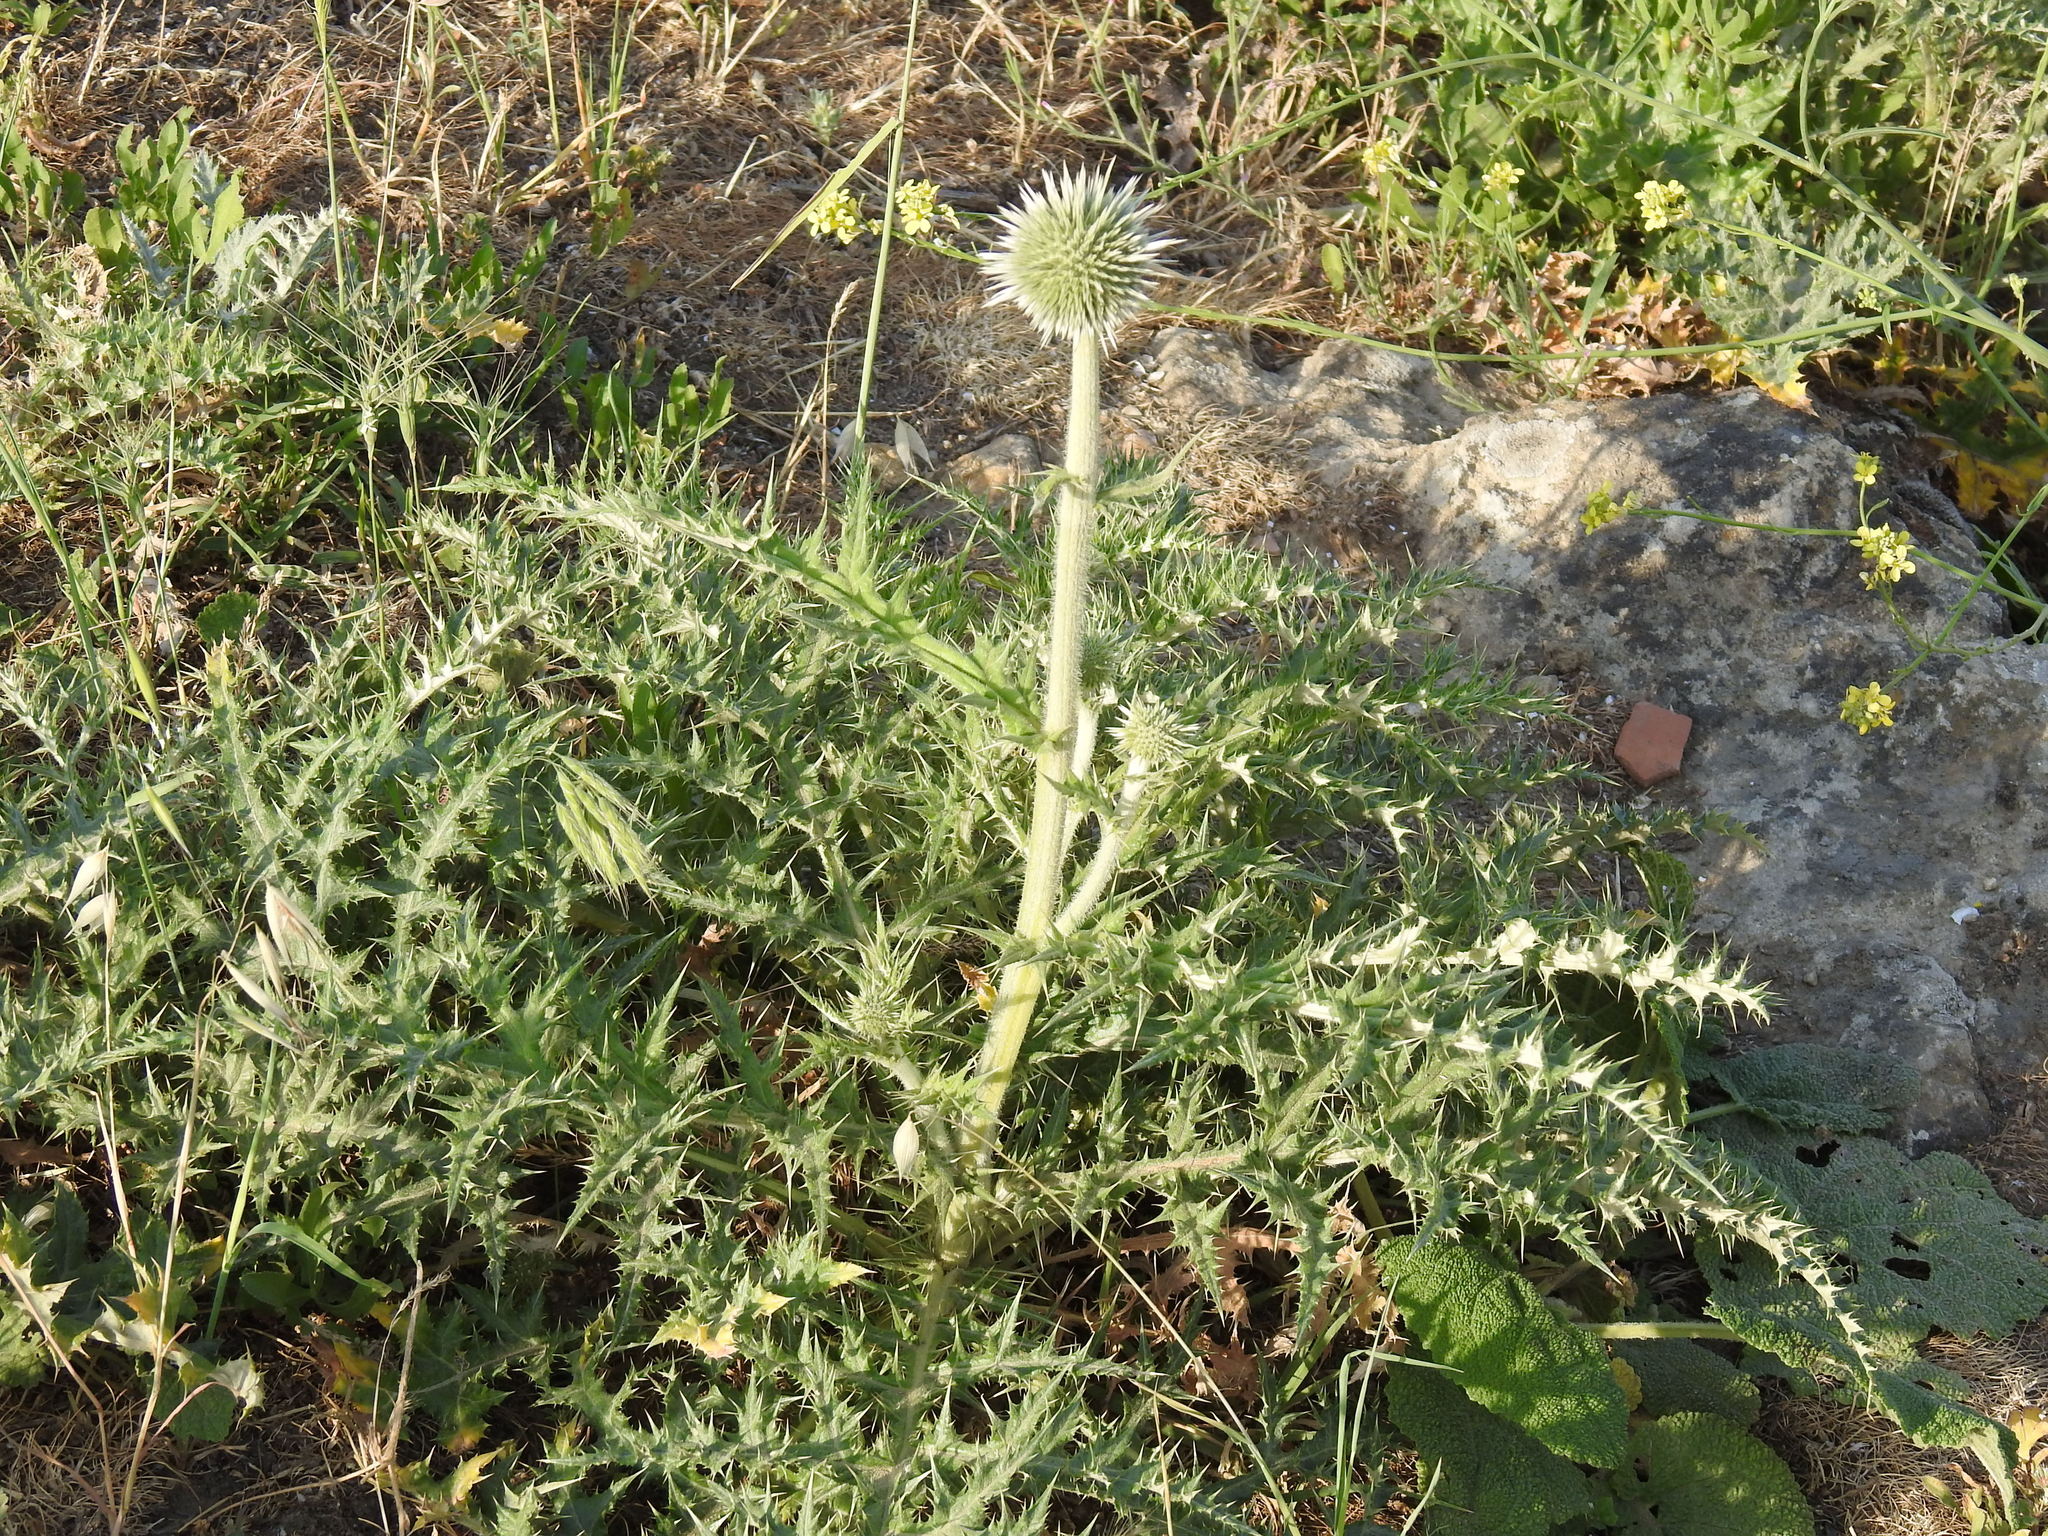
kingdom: Plantae
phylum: Tracheophyta
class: Magnoliopsida
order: Asterales
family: Asteraceae
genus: Echinops
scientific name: Echinops orientalis
